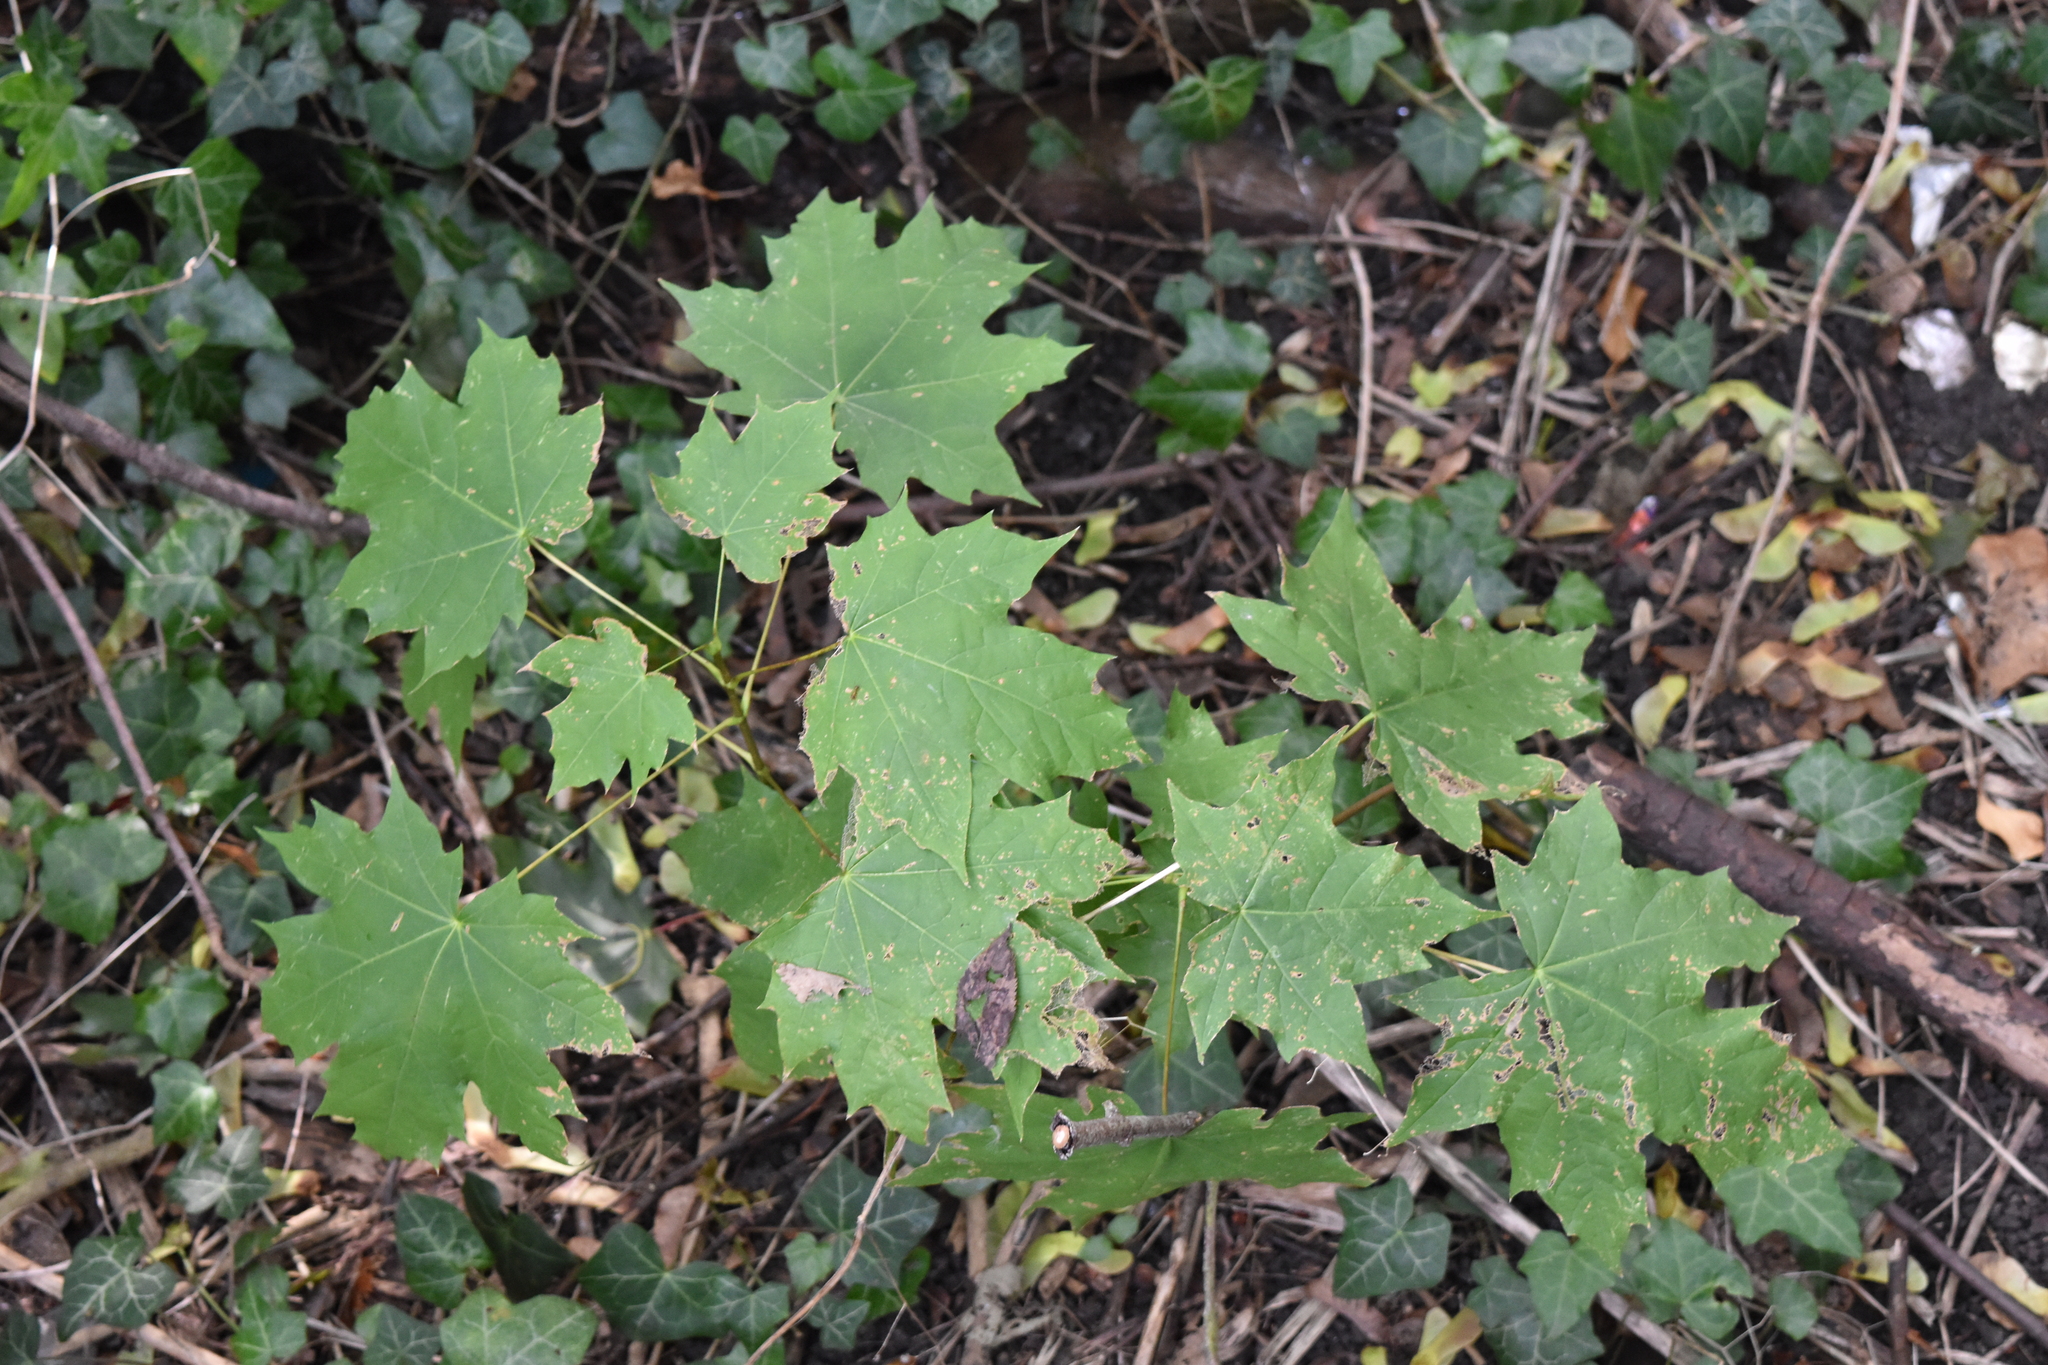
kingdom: Plantae
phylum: Tracheophyta
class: Magnoliopsida
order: Sapindales
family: Sapindaceae
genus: Acer
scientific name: Acer platanoides
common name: Norway maple
